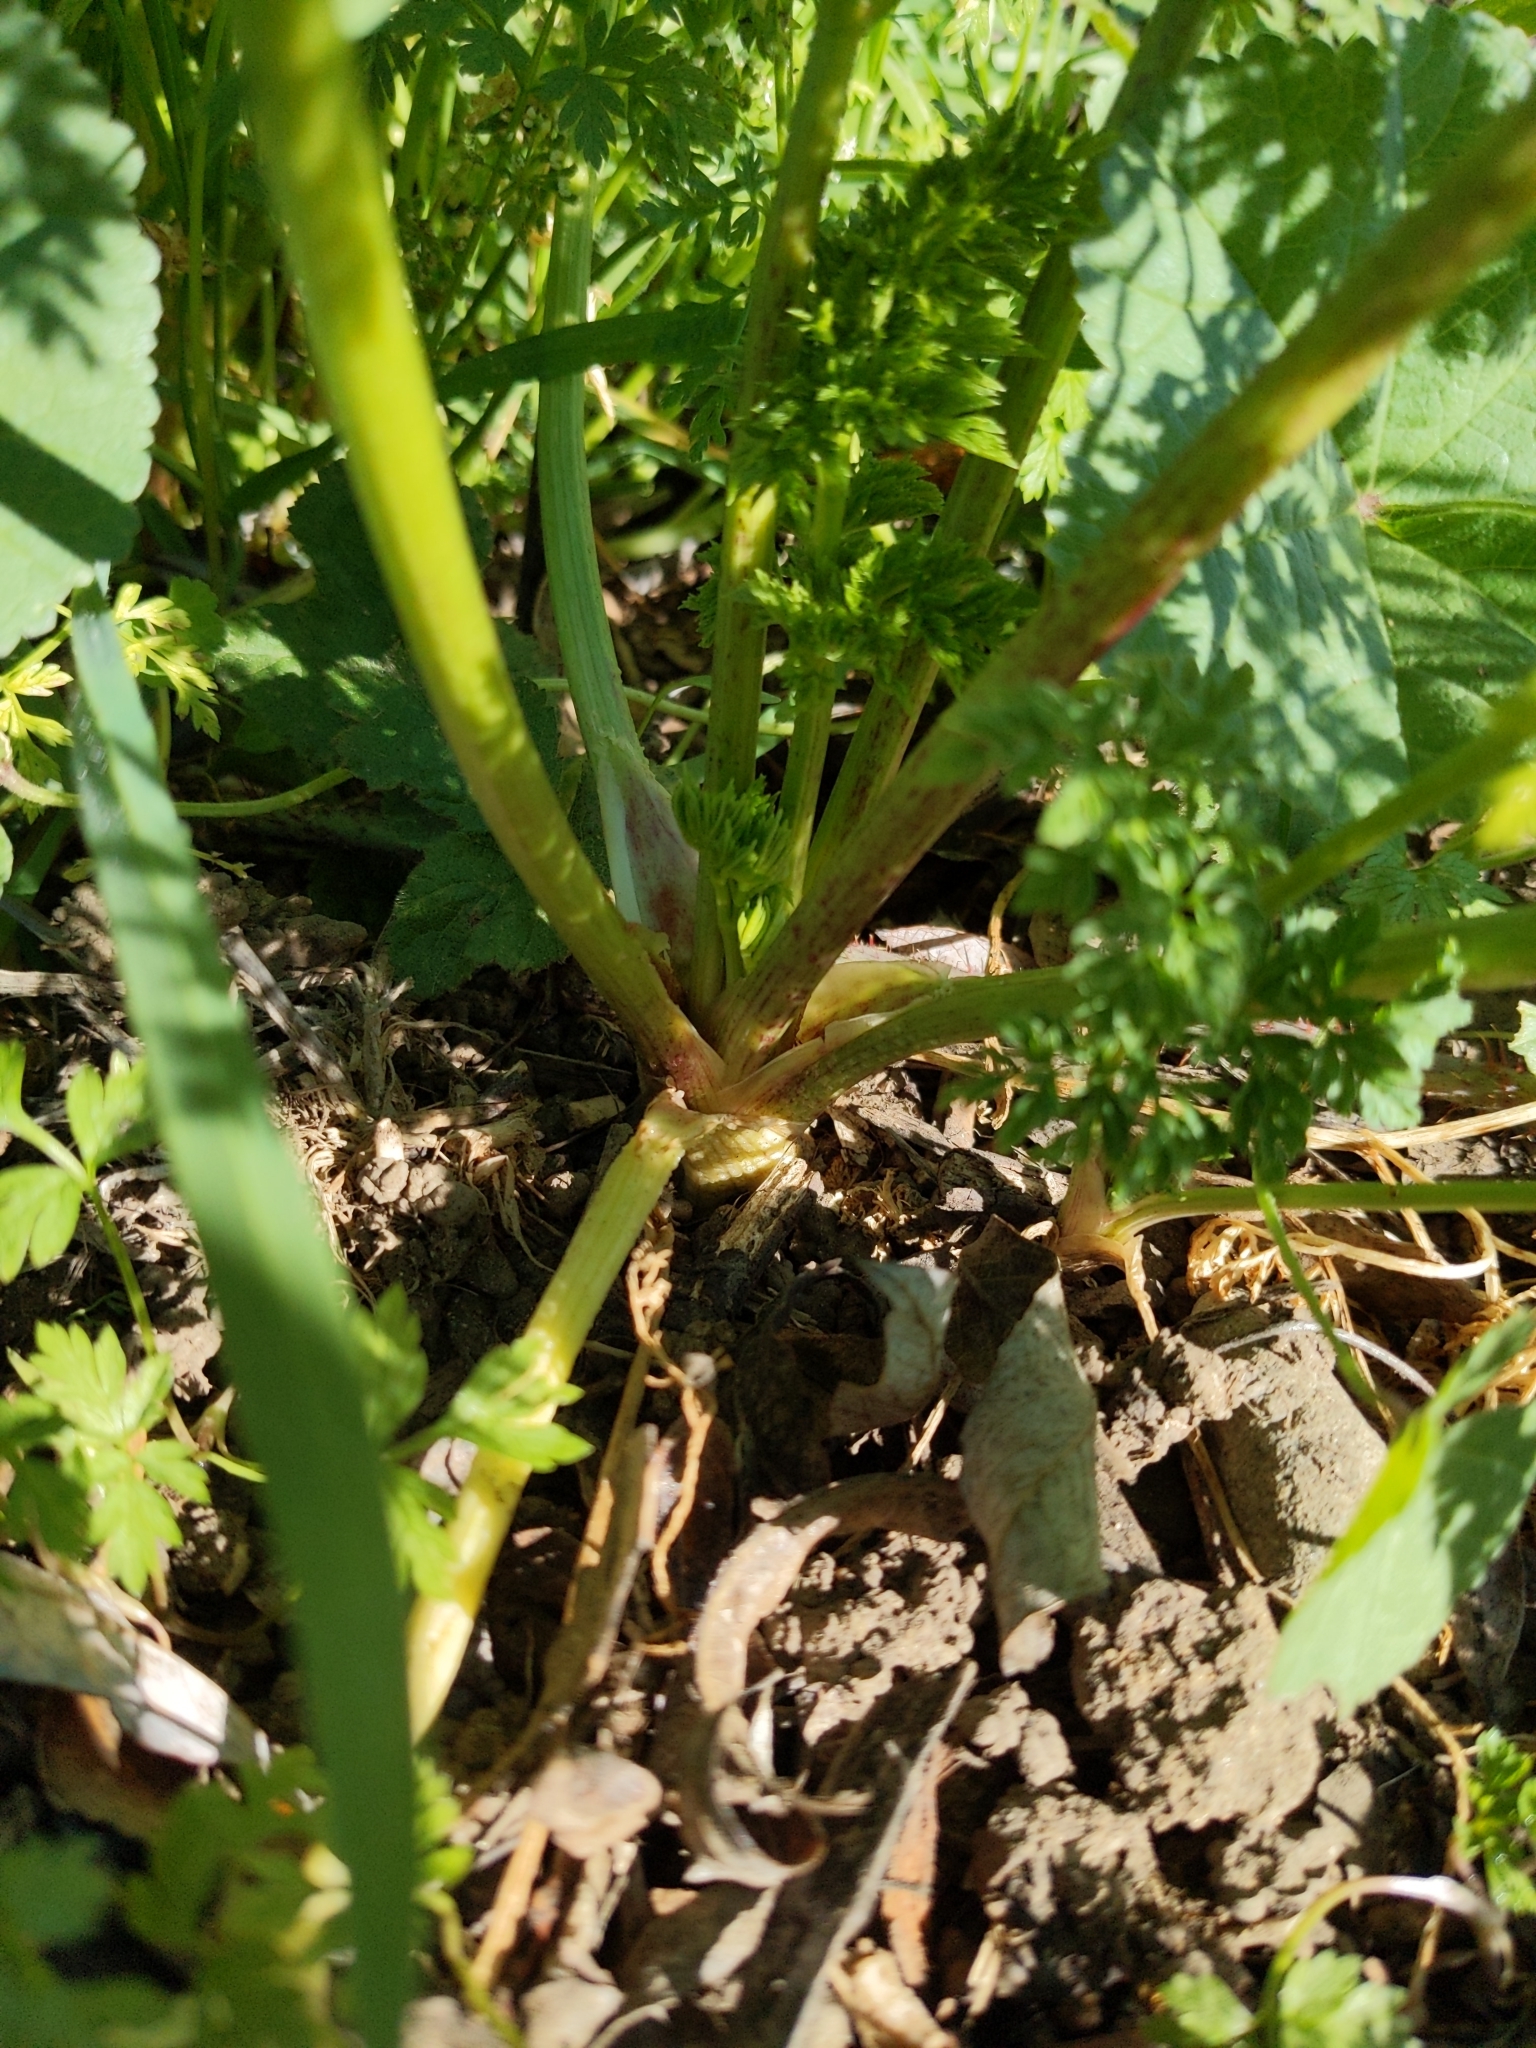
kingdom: Plantae
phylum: Tracheophyta
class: Magnoliopsida
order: Apiales
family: Apiaceae
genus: Conium
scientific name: Conium maculatum
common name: Hemlock
